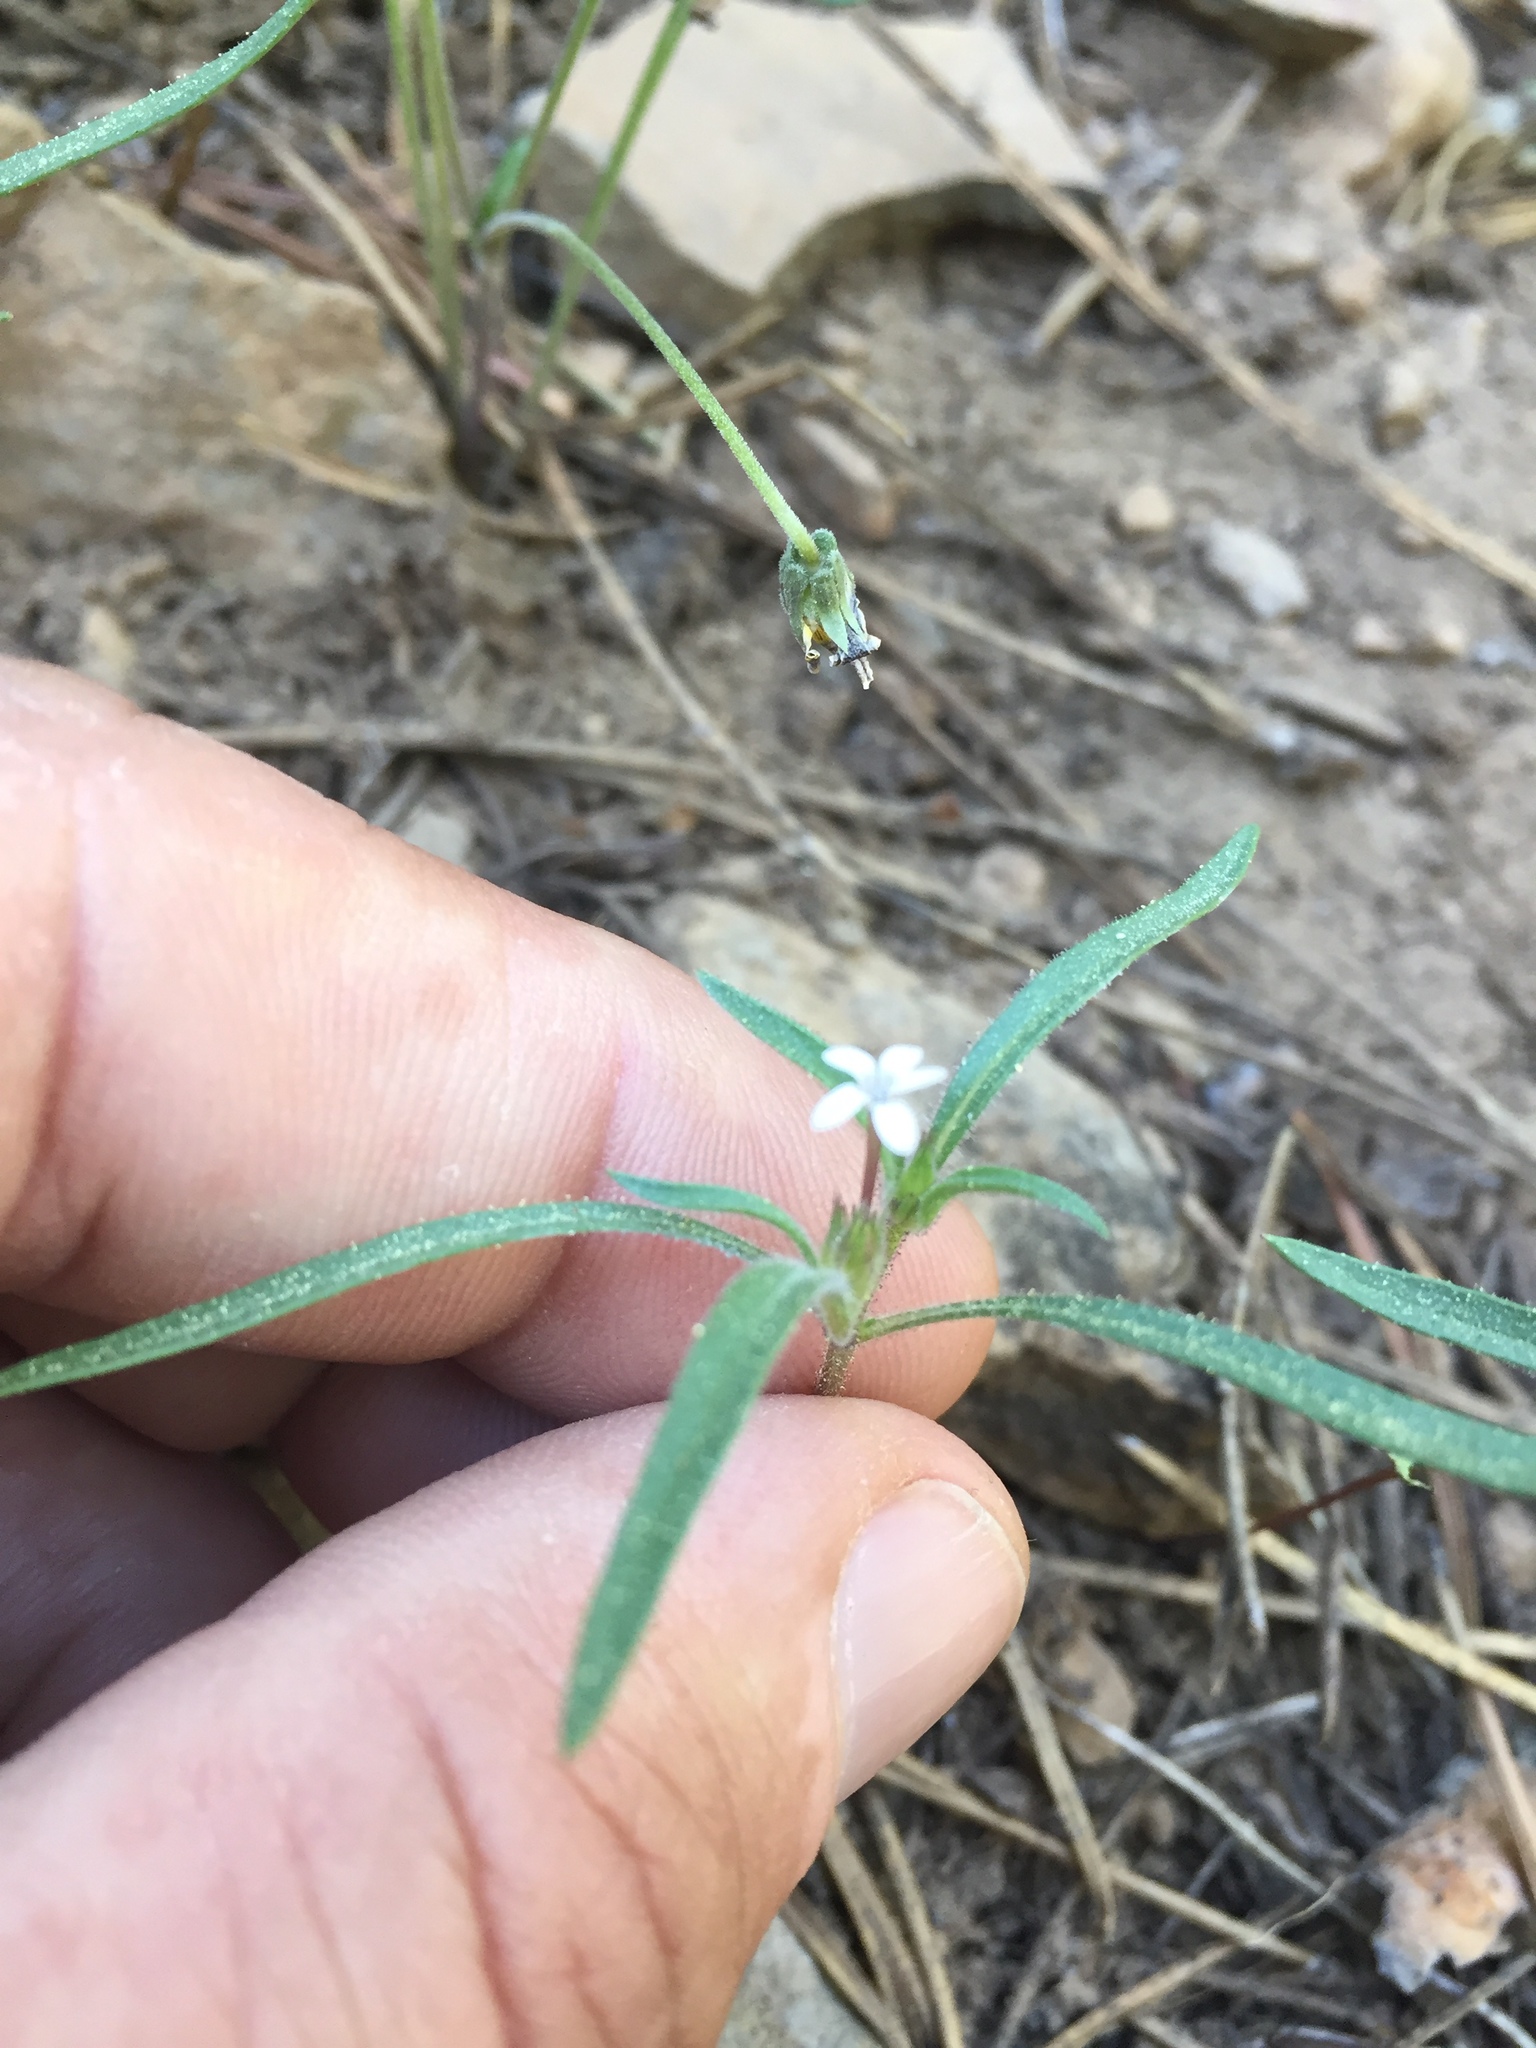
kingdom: Plantae
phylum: Tracheophyta
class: Magnoliopsida
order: Ericales
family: Polemoniaceae
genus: Collomia
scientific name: Collomia tinctoria
